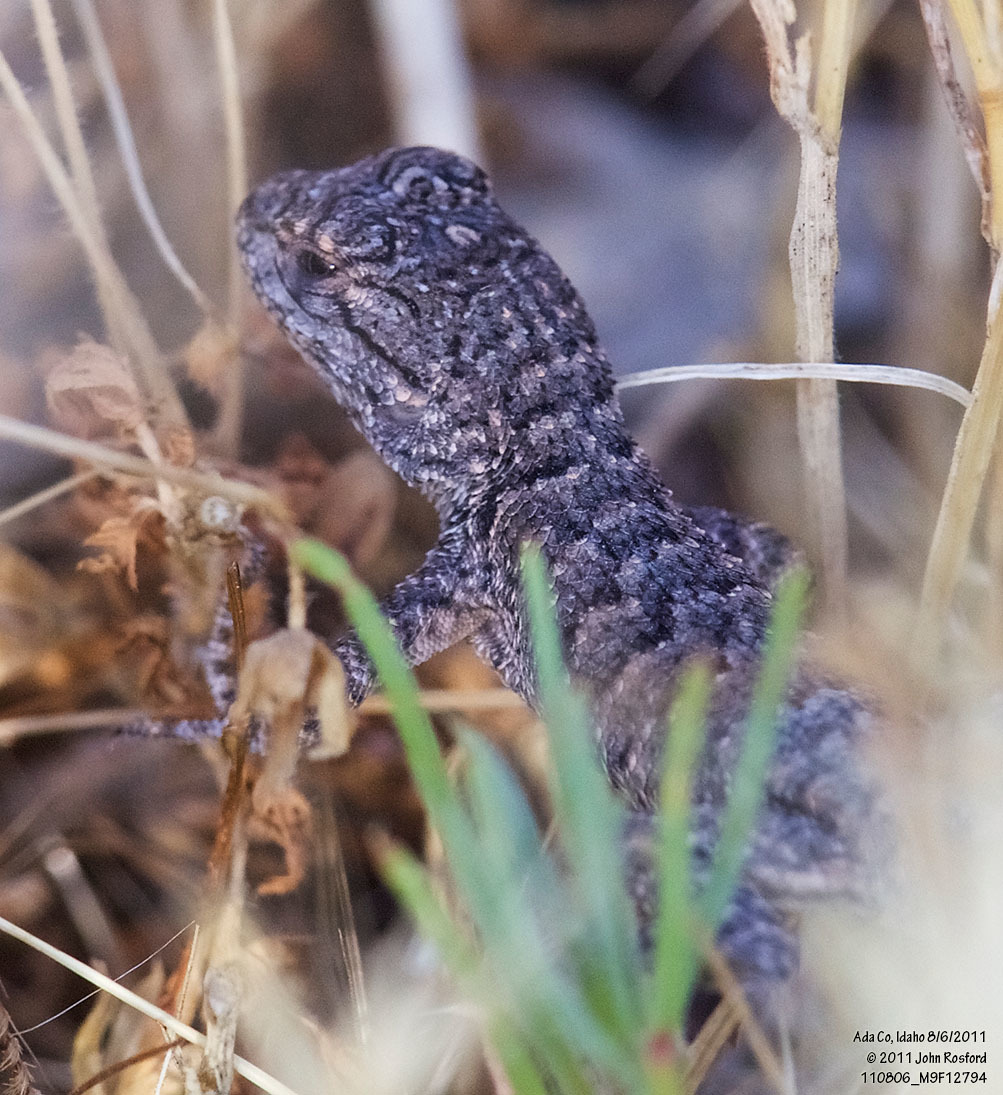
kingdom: Animalia
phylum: Chordata
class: Squamata
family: Phrynosomatidae
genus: Sceloporus
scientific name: Sceloporus occidentalis
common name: Western fence lizard
